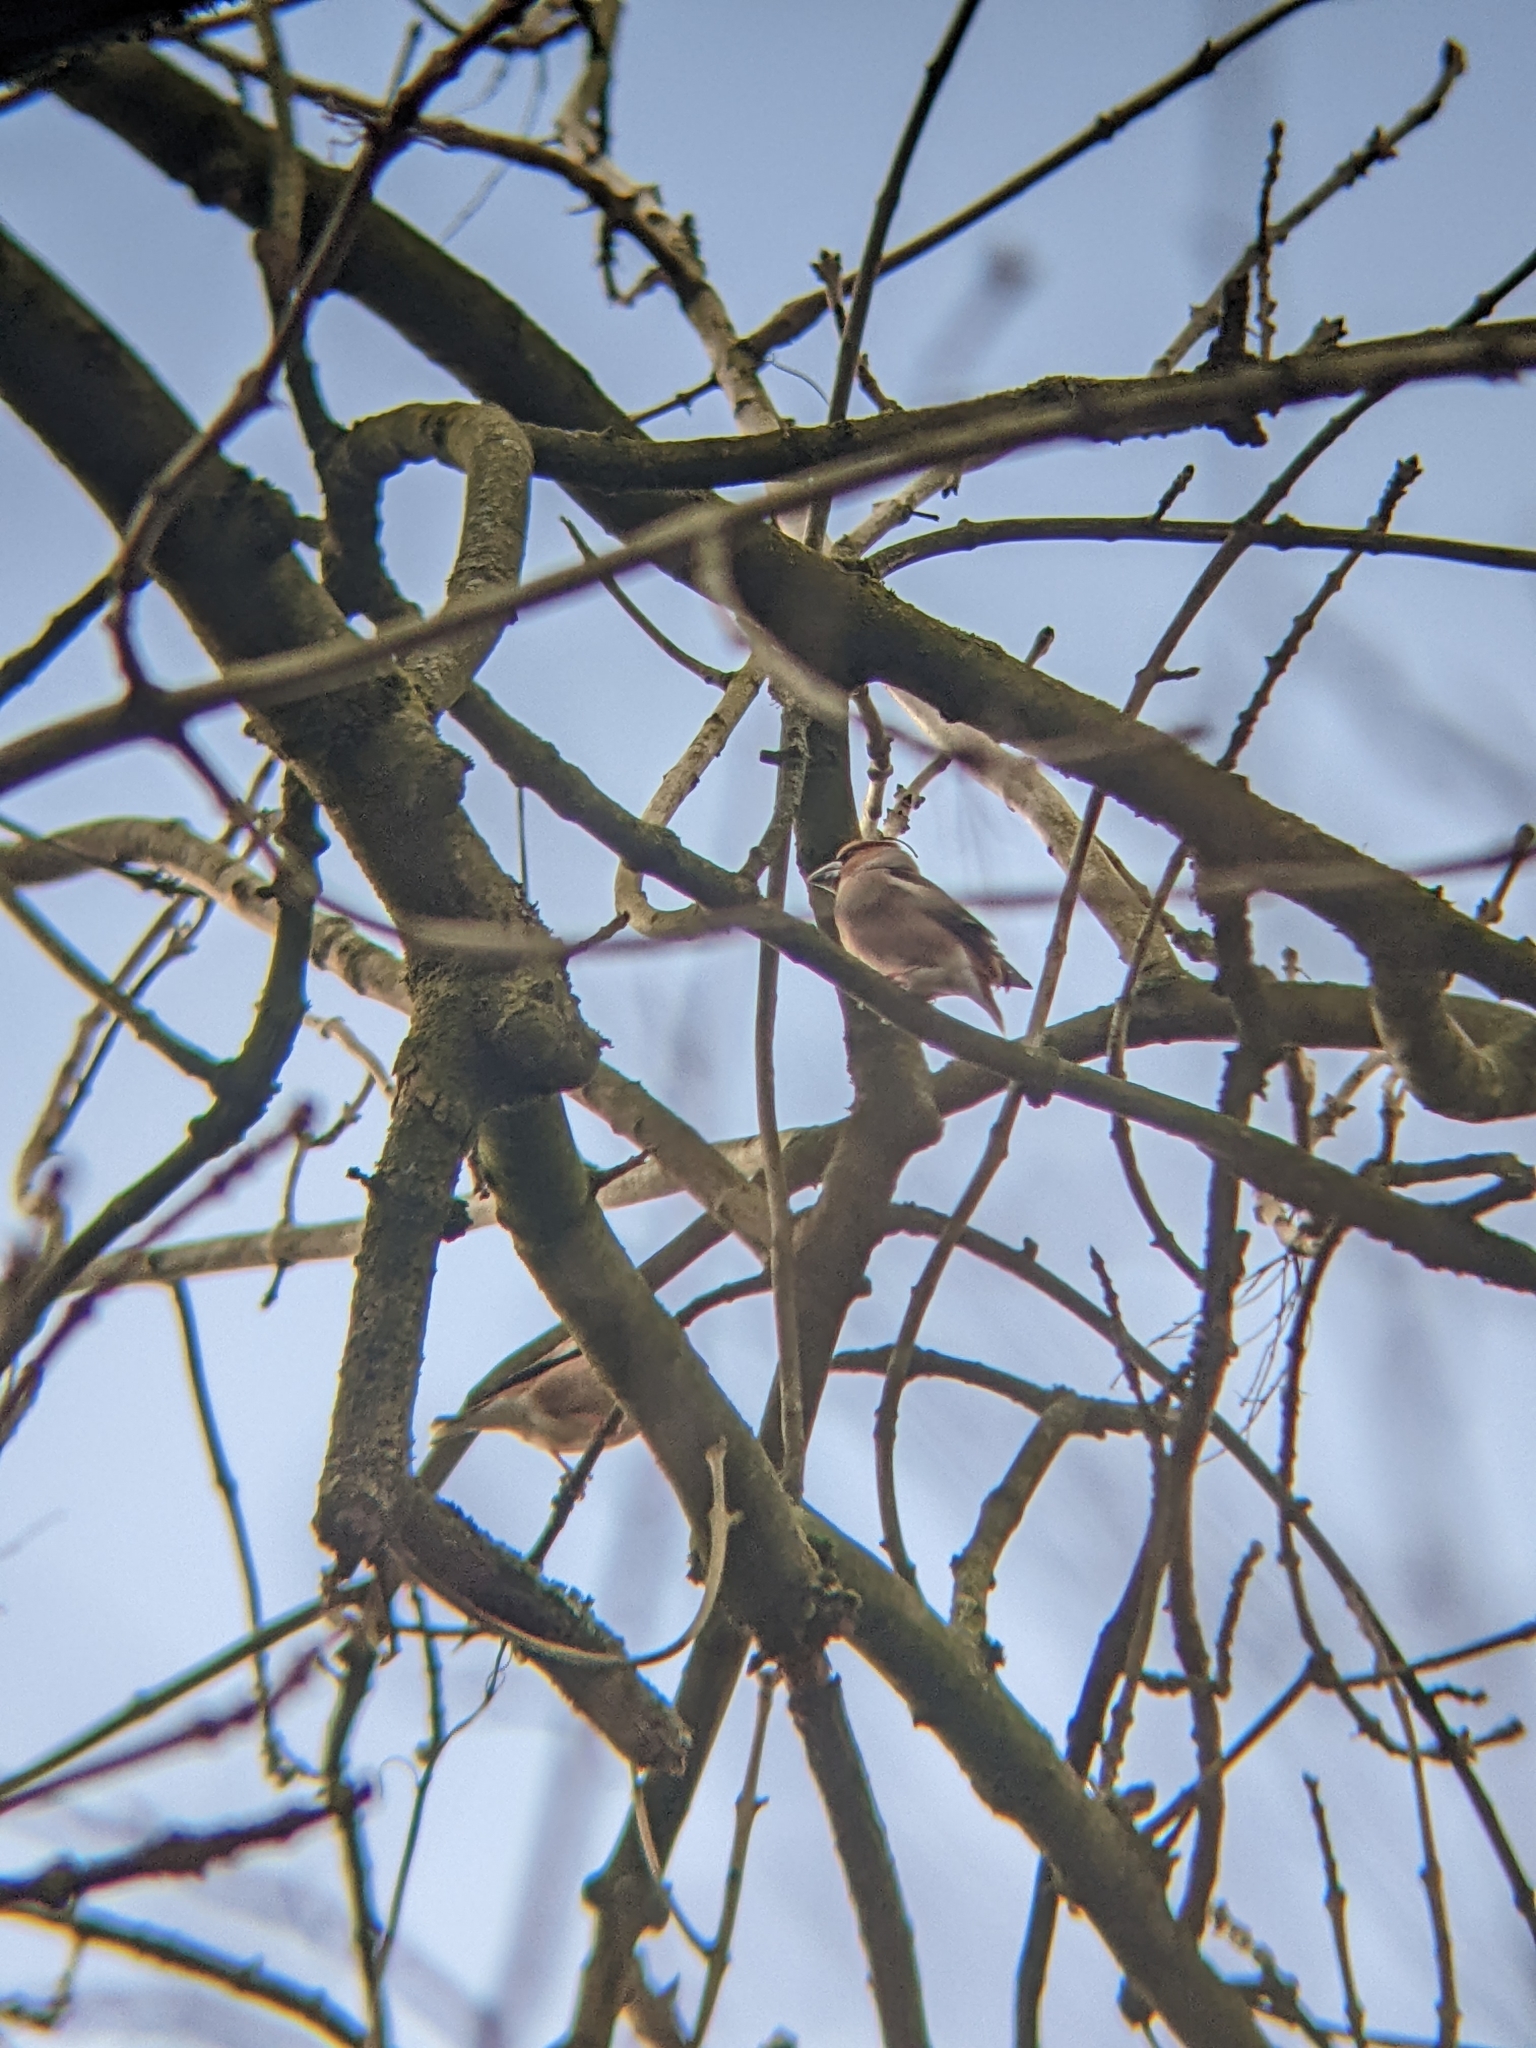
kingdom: Animalia
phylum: Chordata
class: Aves
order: Passeriformes
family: Fringillidae
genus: Coccothraustes
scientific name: Coccothraustes coccothraustes
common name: Hawfinch
